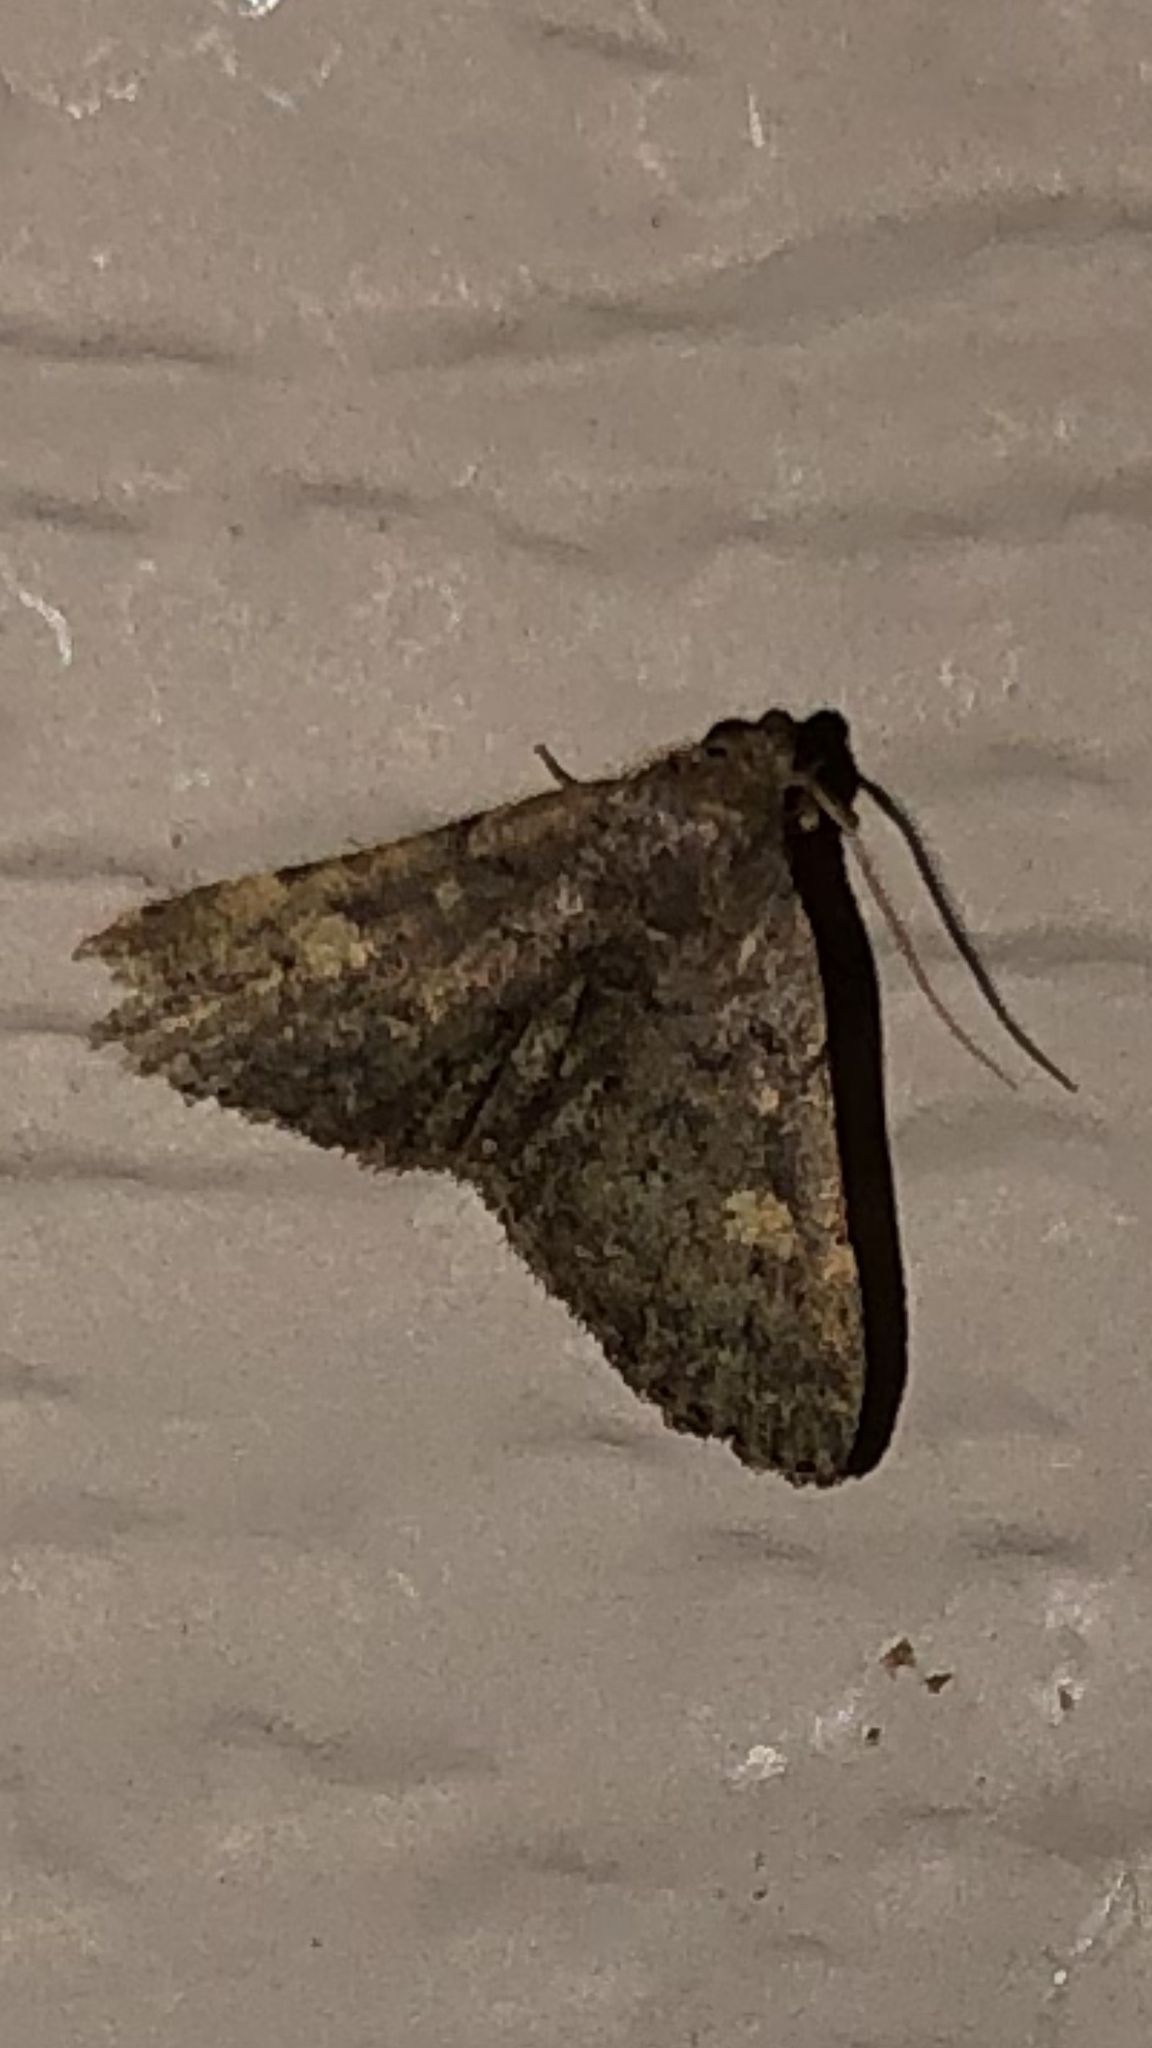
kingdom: Animalia
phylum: Arthropoda
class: Insecta
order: Lepidoptera
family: Erebidae
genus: Idia
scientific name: Idia aemula
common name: Common idia moth
